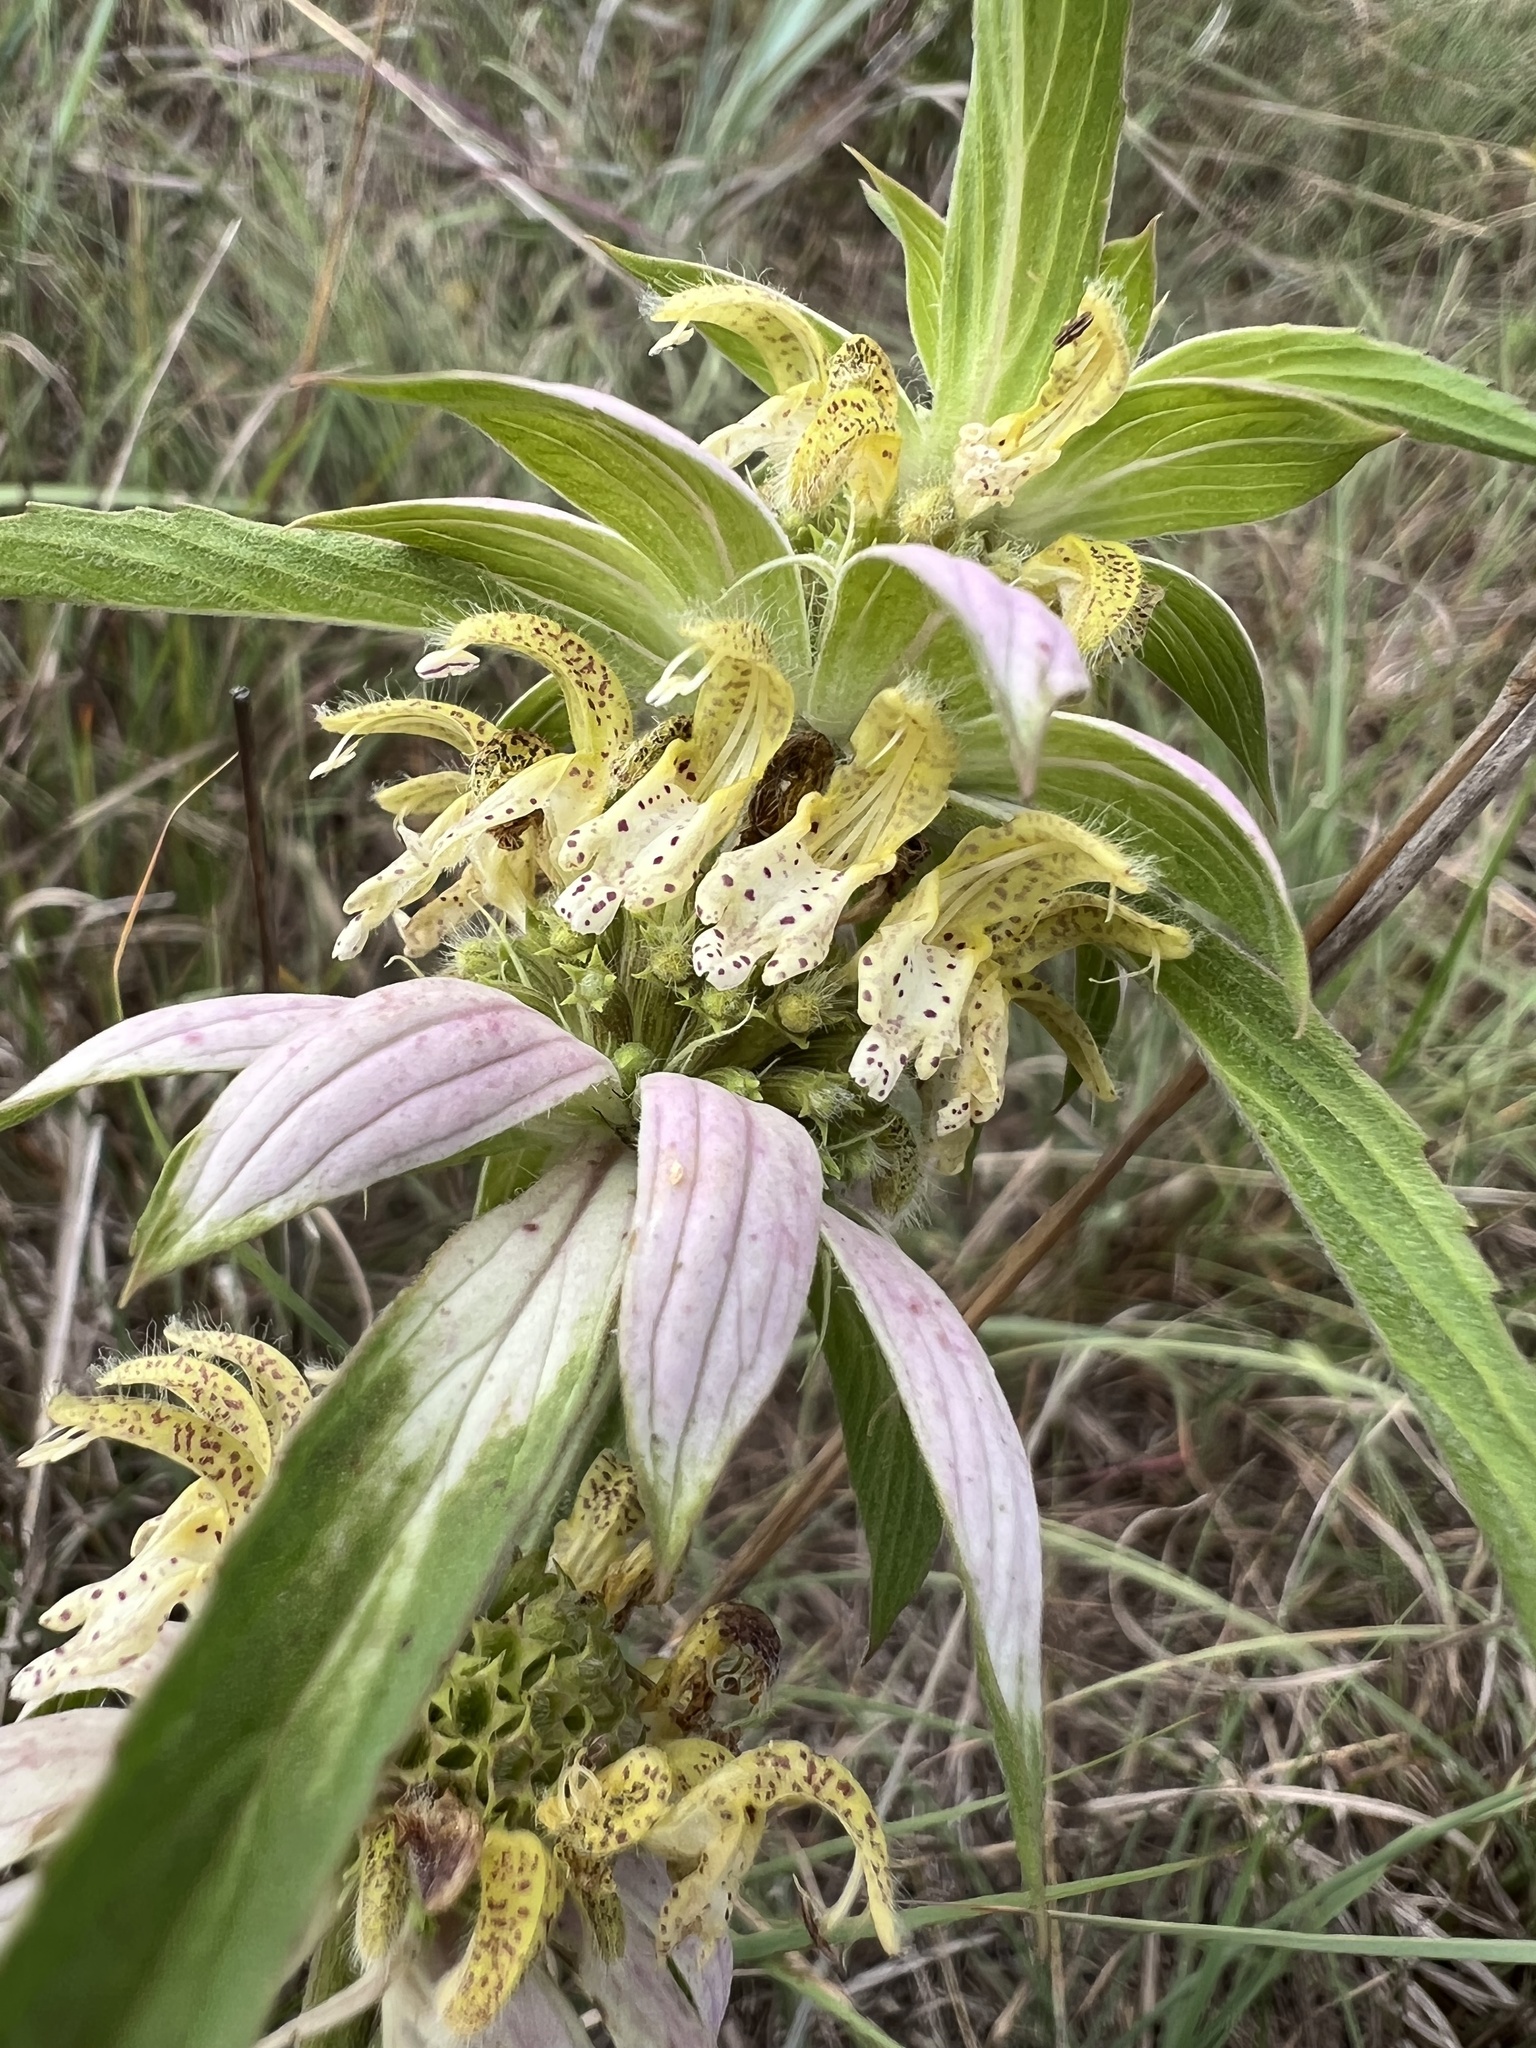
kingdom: Plantae
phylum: Tracheophyta
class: Magnoliopsida
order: Lamiales
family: Lamiaceae
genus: Monarda
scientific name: Monarda punctata
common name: Dotted monarda
